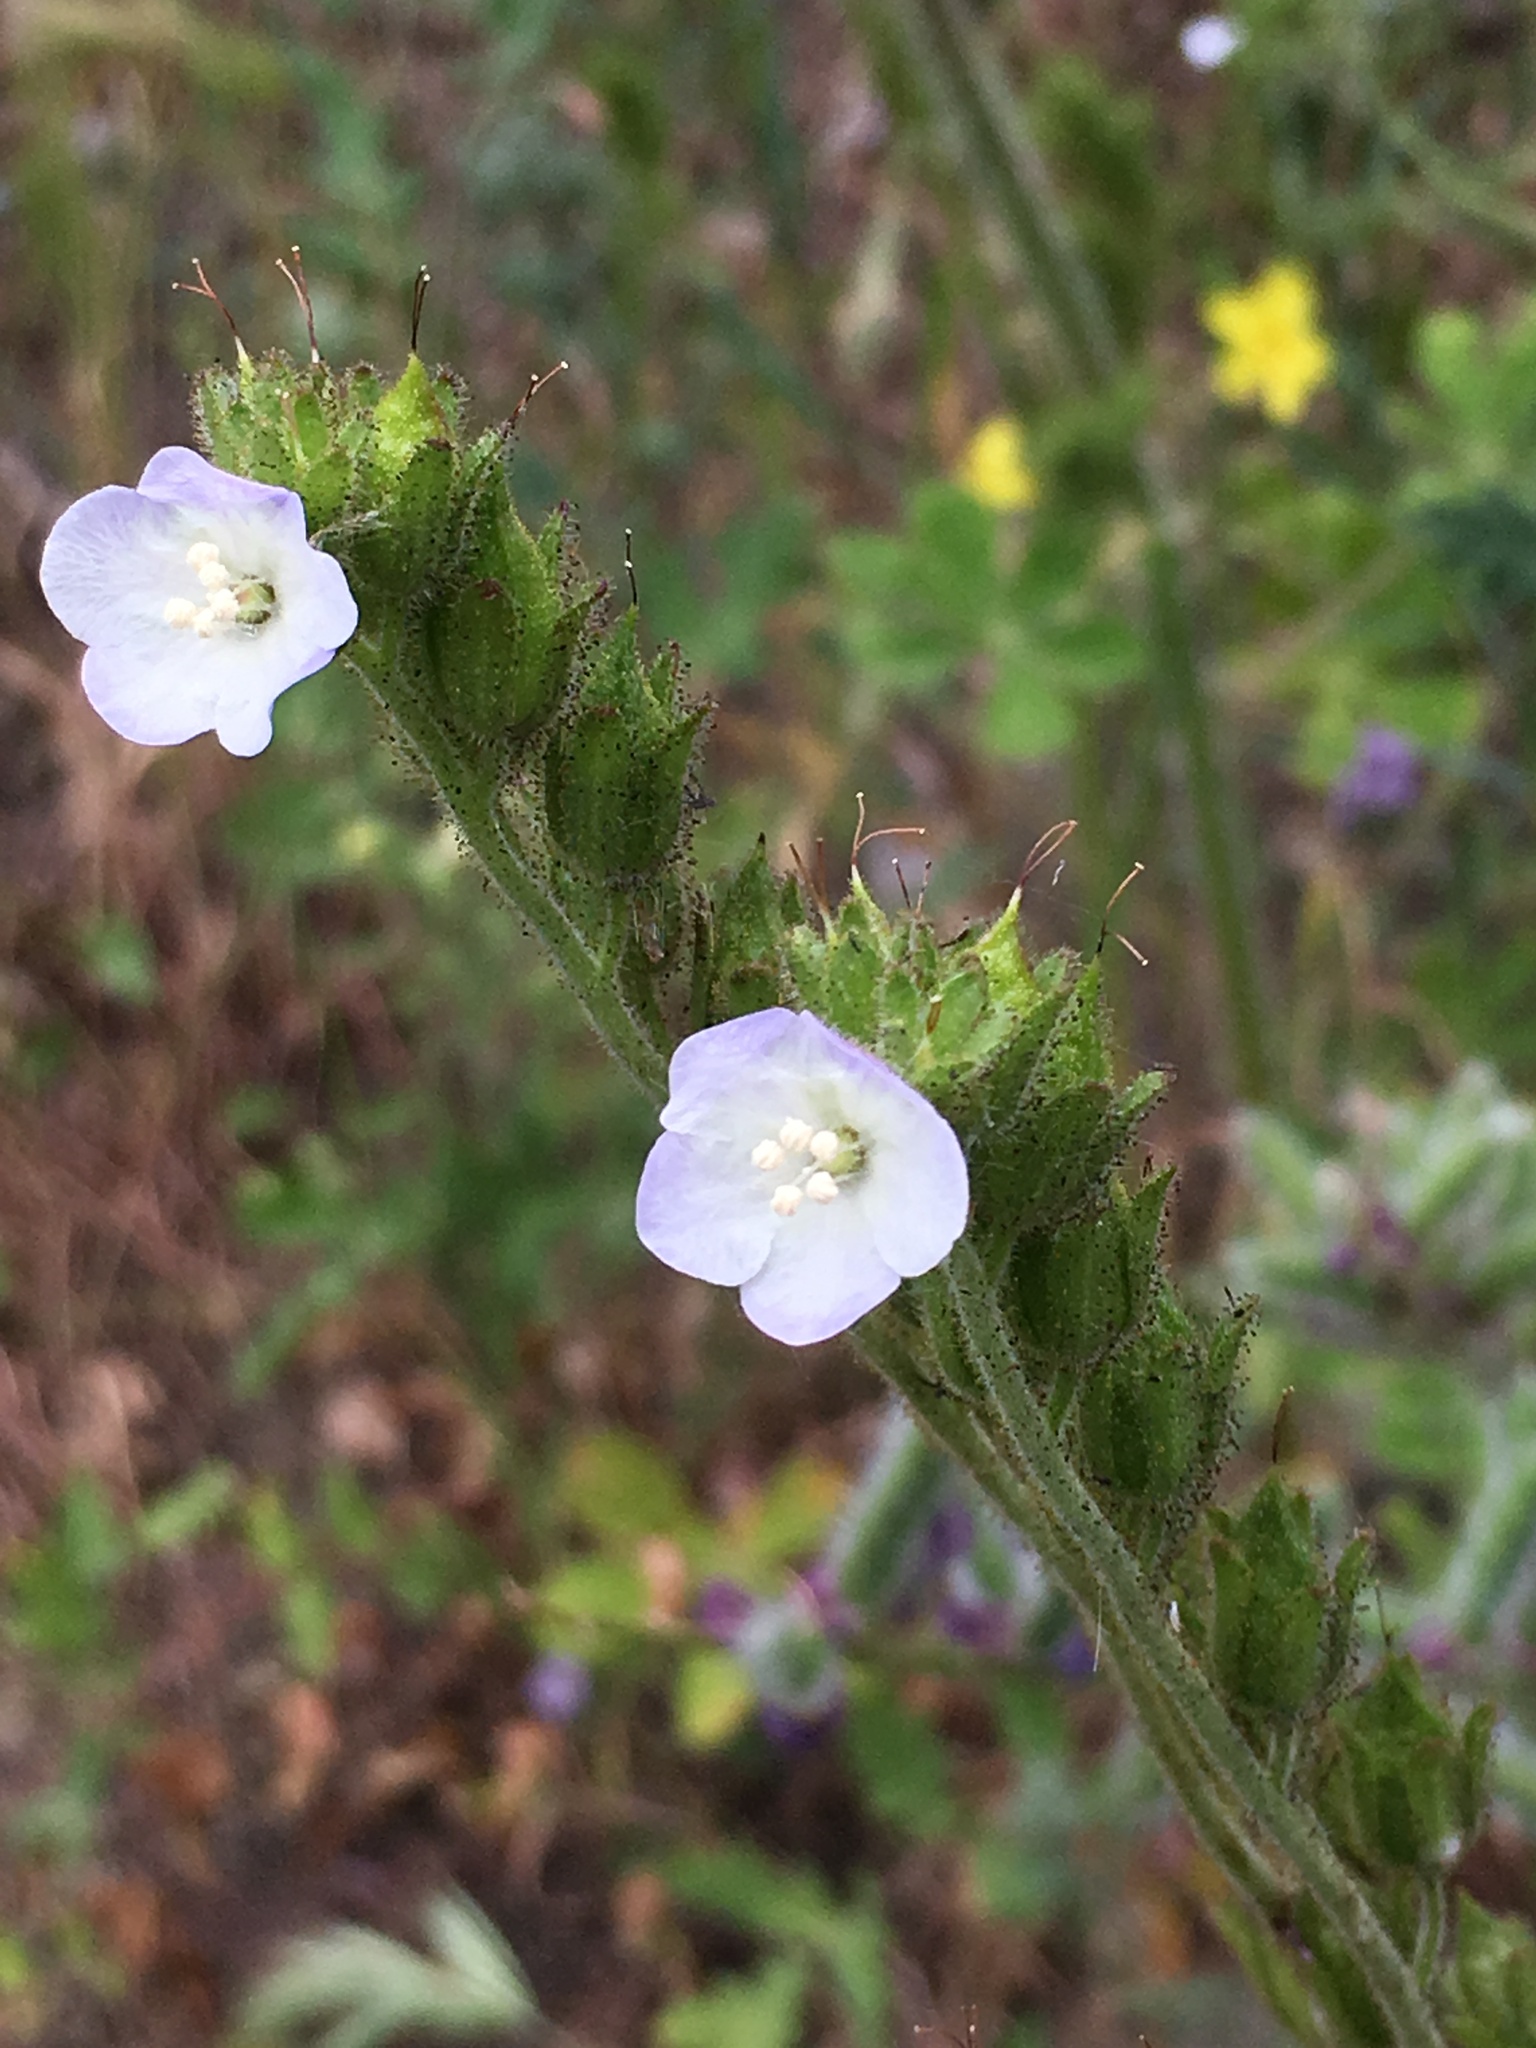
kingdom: Plantae
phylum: Tracheophyta
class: Magnoliopsida
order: Boraginales
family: Hydrophyllaceae
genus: Phacelia
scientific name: Phacelia viscida
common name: Sticky phacelia
